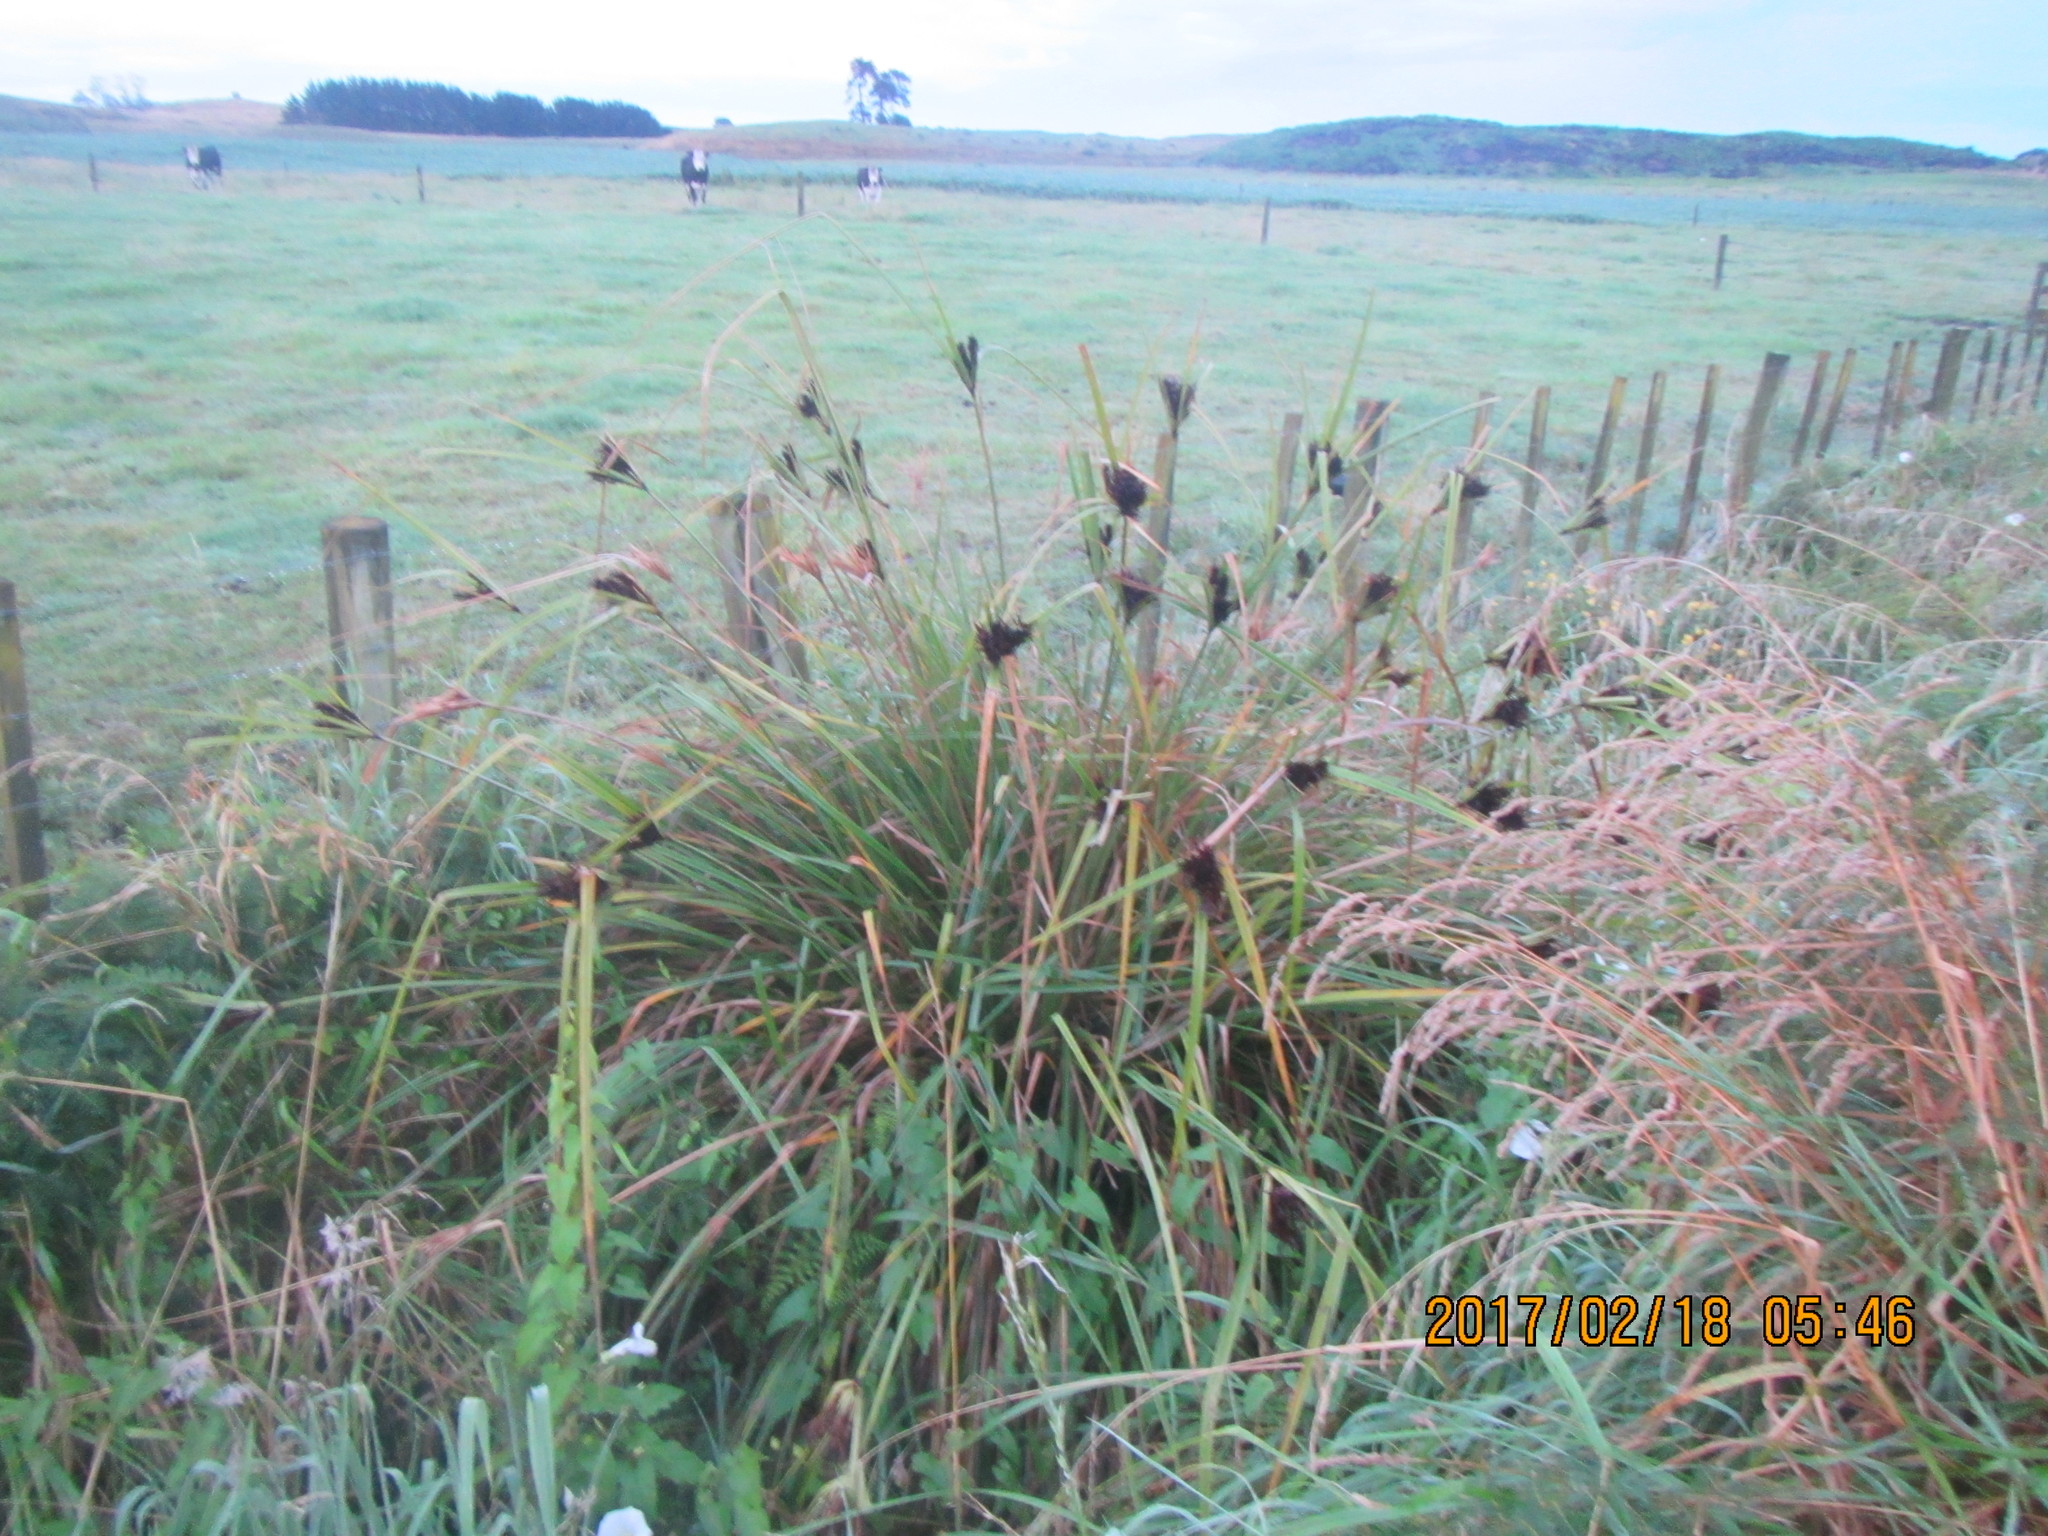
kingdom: Plantae
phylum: Tracheophyta
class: Liliopsida
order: Poales
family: Cyperaceae
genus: Cyperus
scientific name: Cyperus ustulatus
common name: Giant umbrella-sedge
